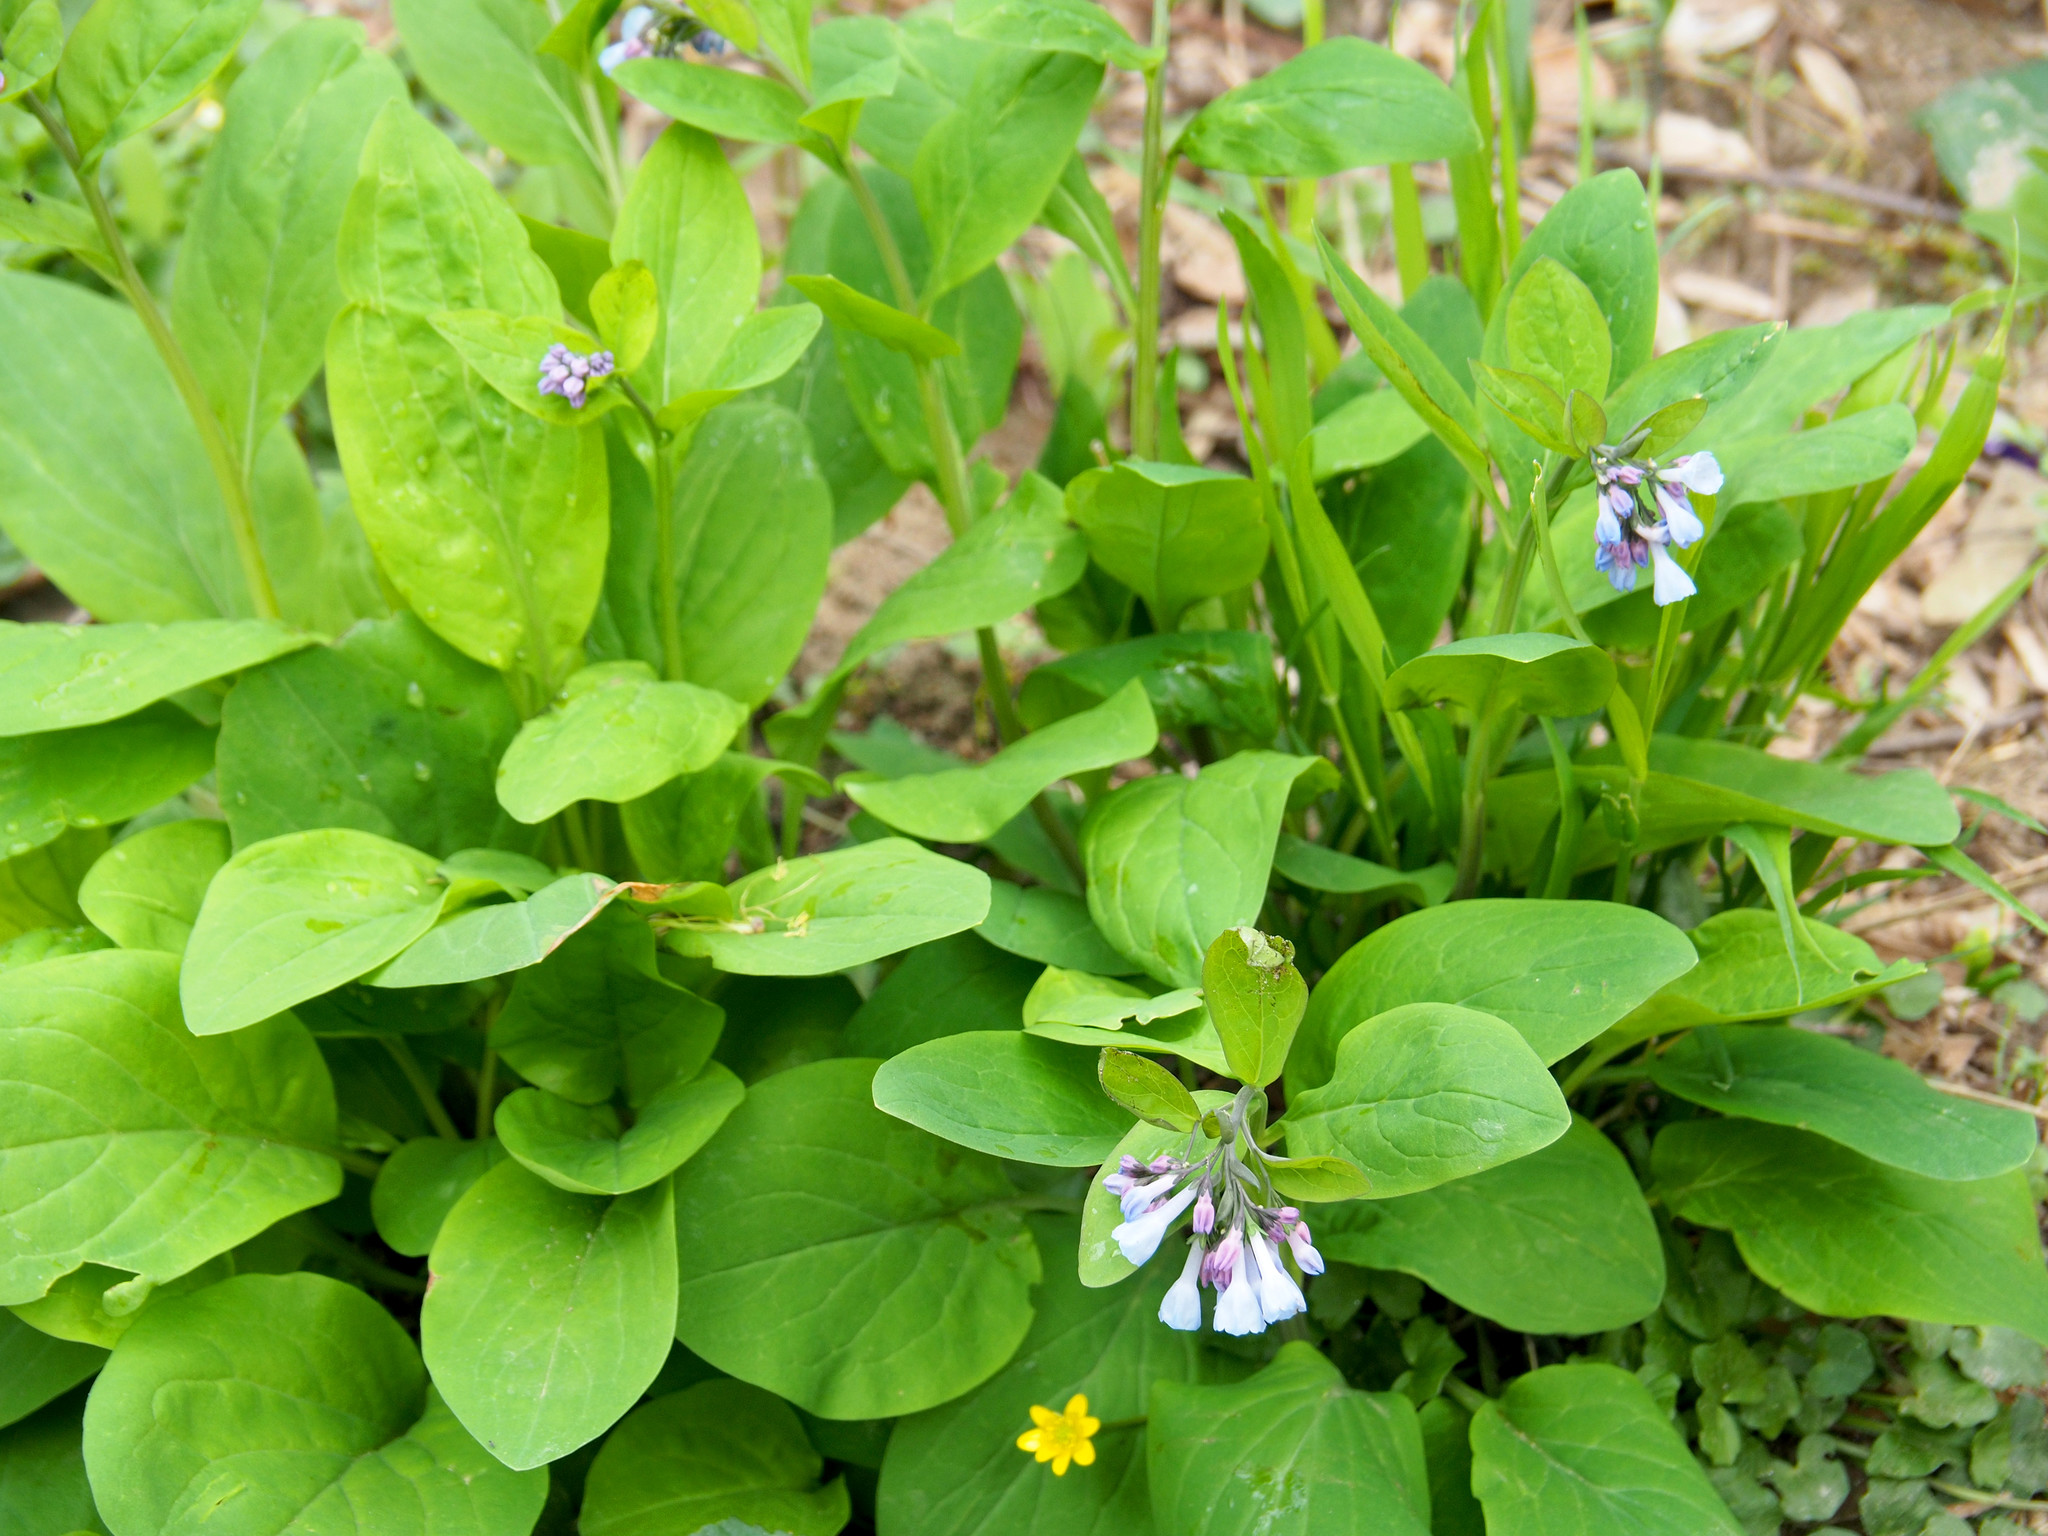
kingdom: Plantae
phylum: Tracheophyta
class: Magnoliopsida
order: Boraginales
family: Boraginaceae
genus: Mertensia
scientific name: Mertensia virginica
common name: Virginia bluebells
